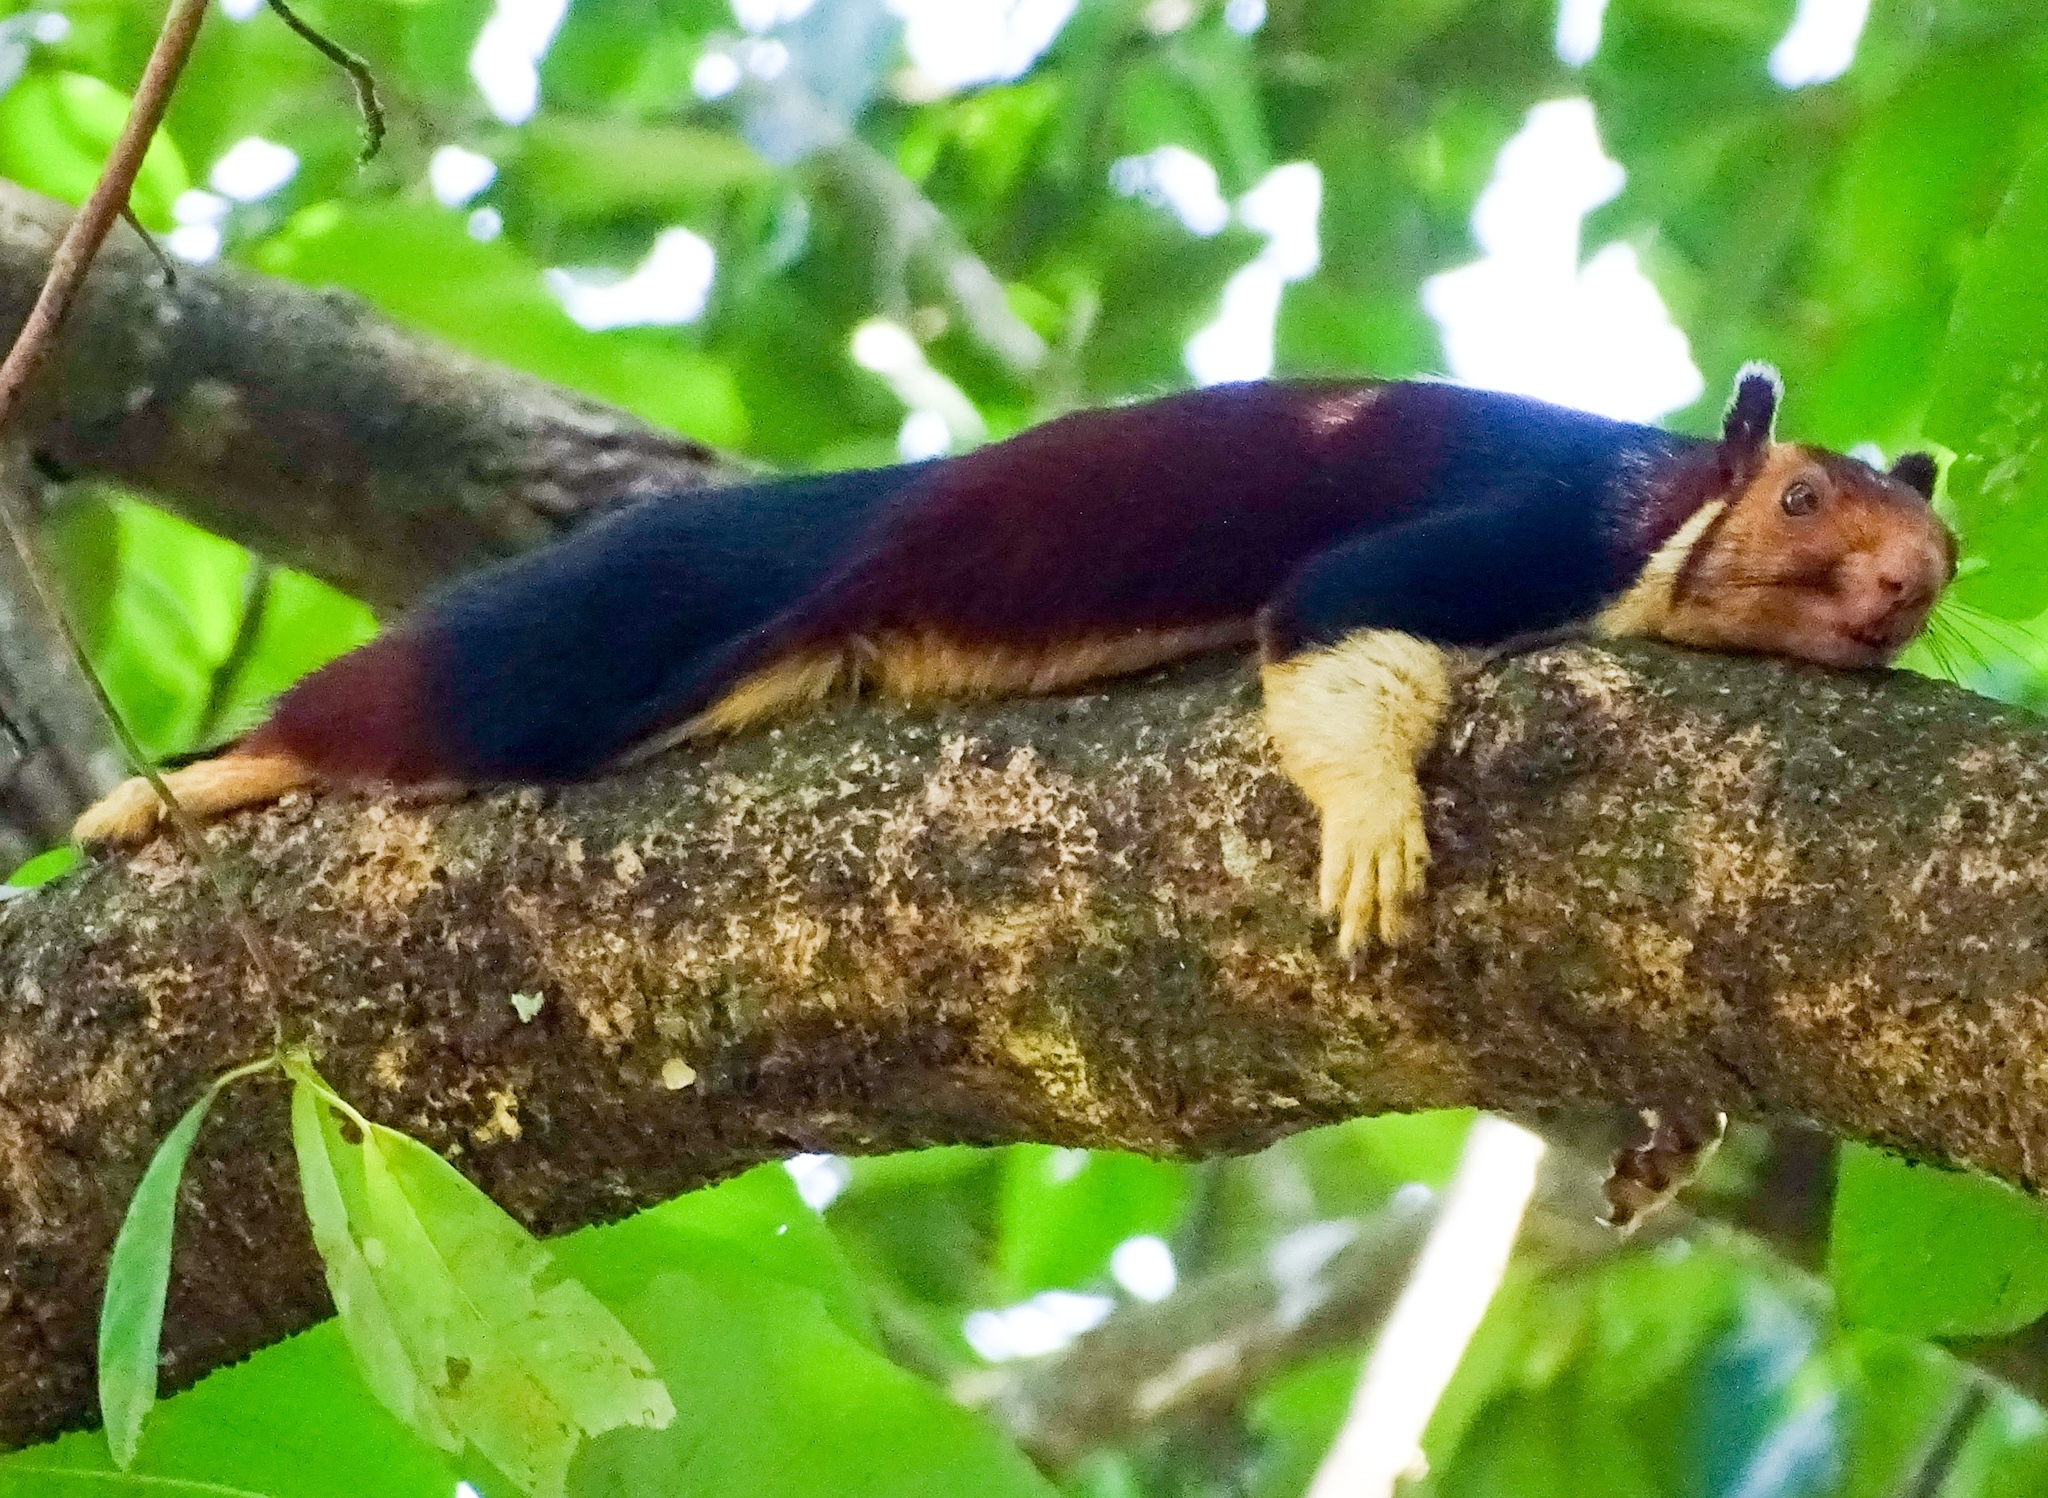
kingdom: Animalia
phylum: Chordata
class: Mammalia
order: Rodentia
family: Sciuridae
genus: Ratufa
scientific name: Ratufa indica
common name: Indian giant squirrel
